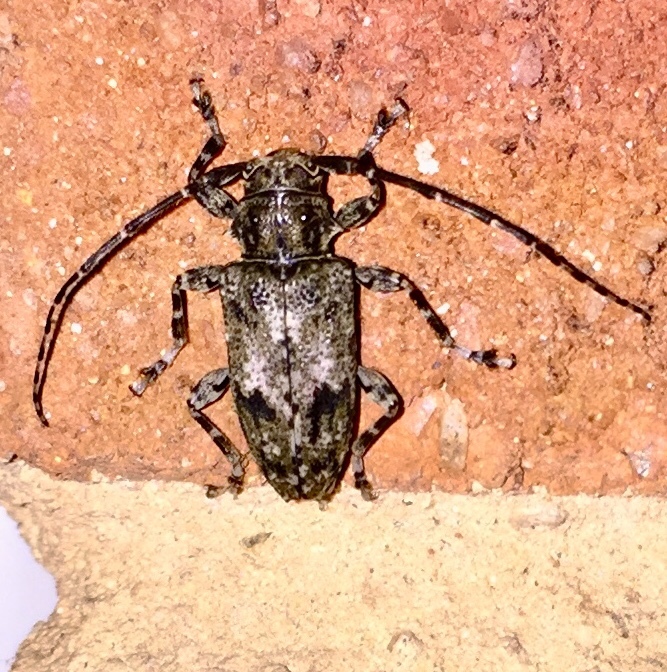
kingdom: Animalia
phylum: Arthropoda
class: Insecta
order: Coleoptera
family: Cerambycidae
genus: Aegomorphus
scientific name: Aegomorphus modestus
